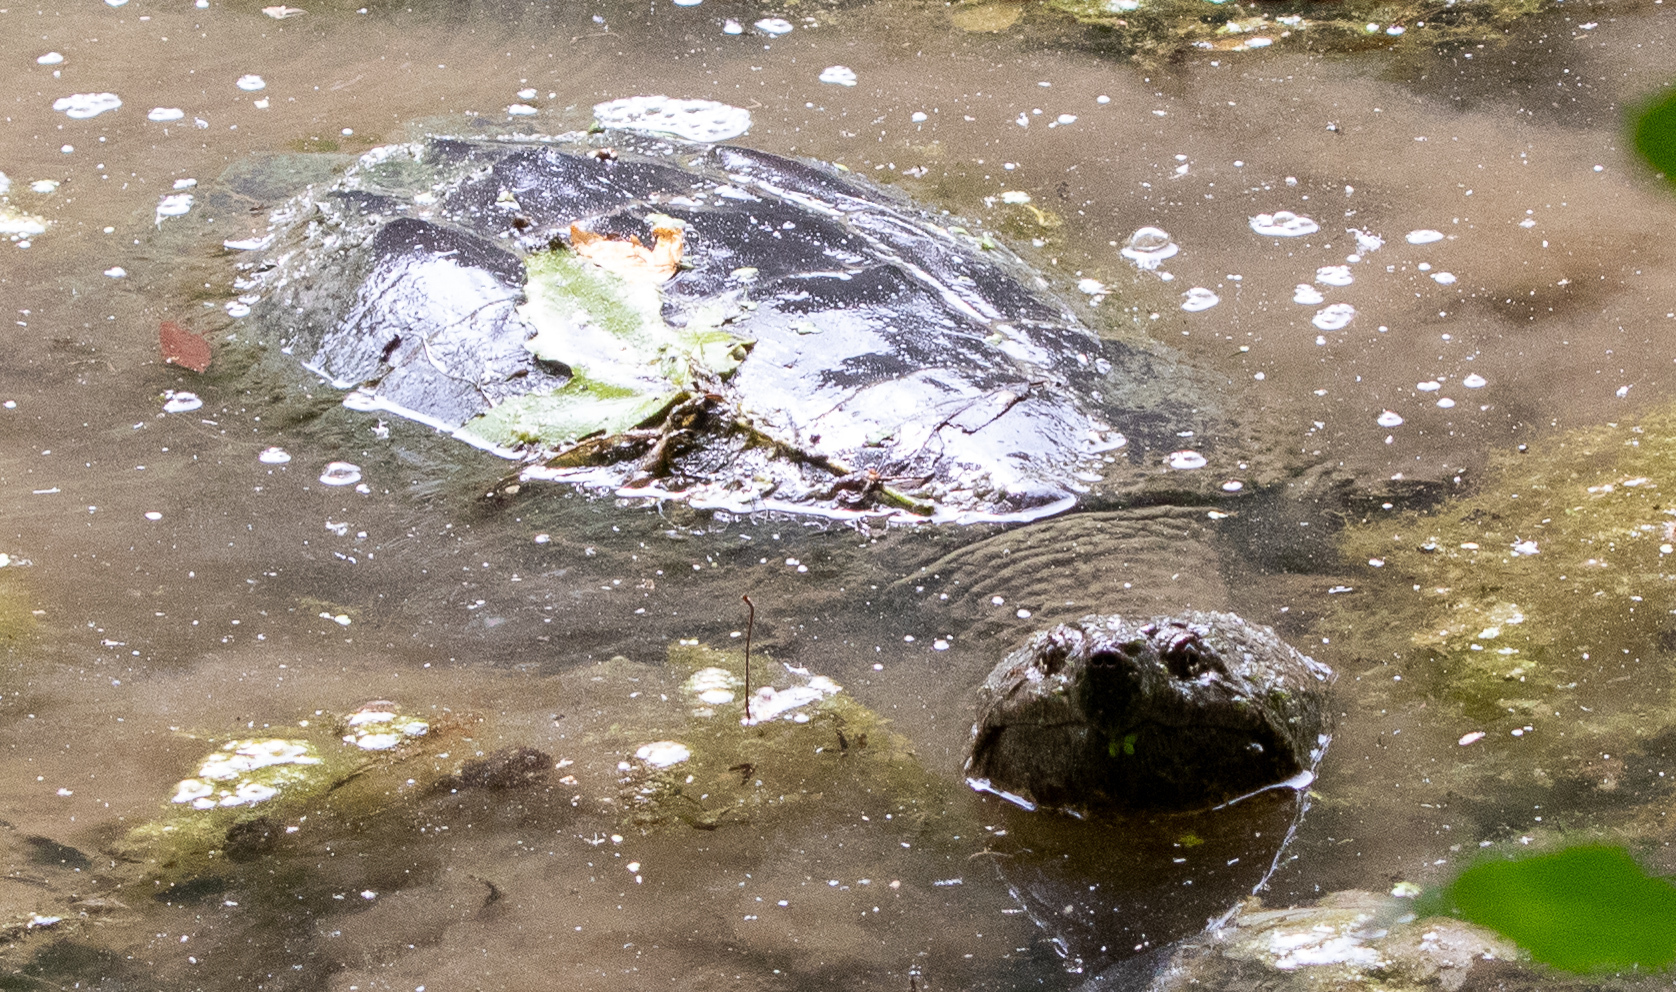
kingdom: Animalia
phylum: Chordata
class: Testudines
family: Chelydridae
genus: Chelydra
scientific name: Chelydra serpentina
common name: Common snapping turtle
